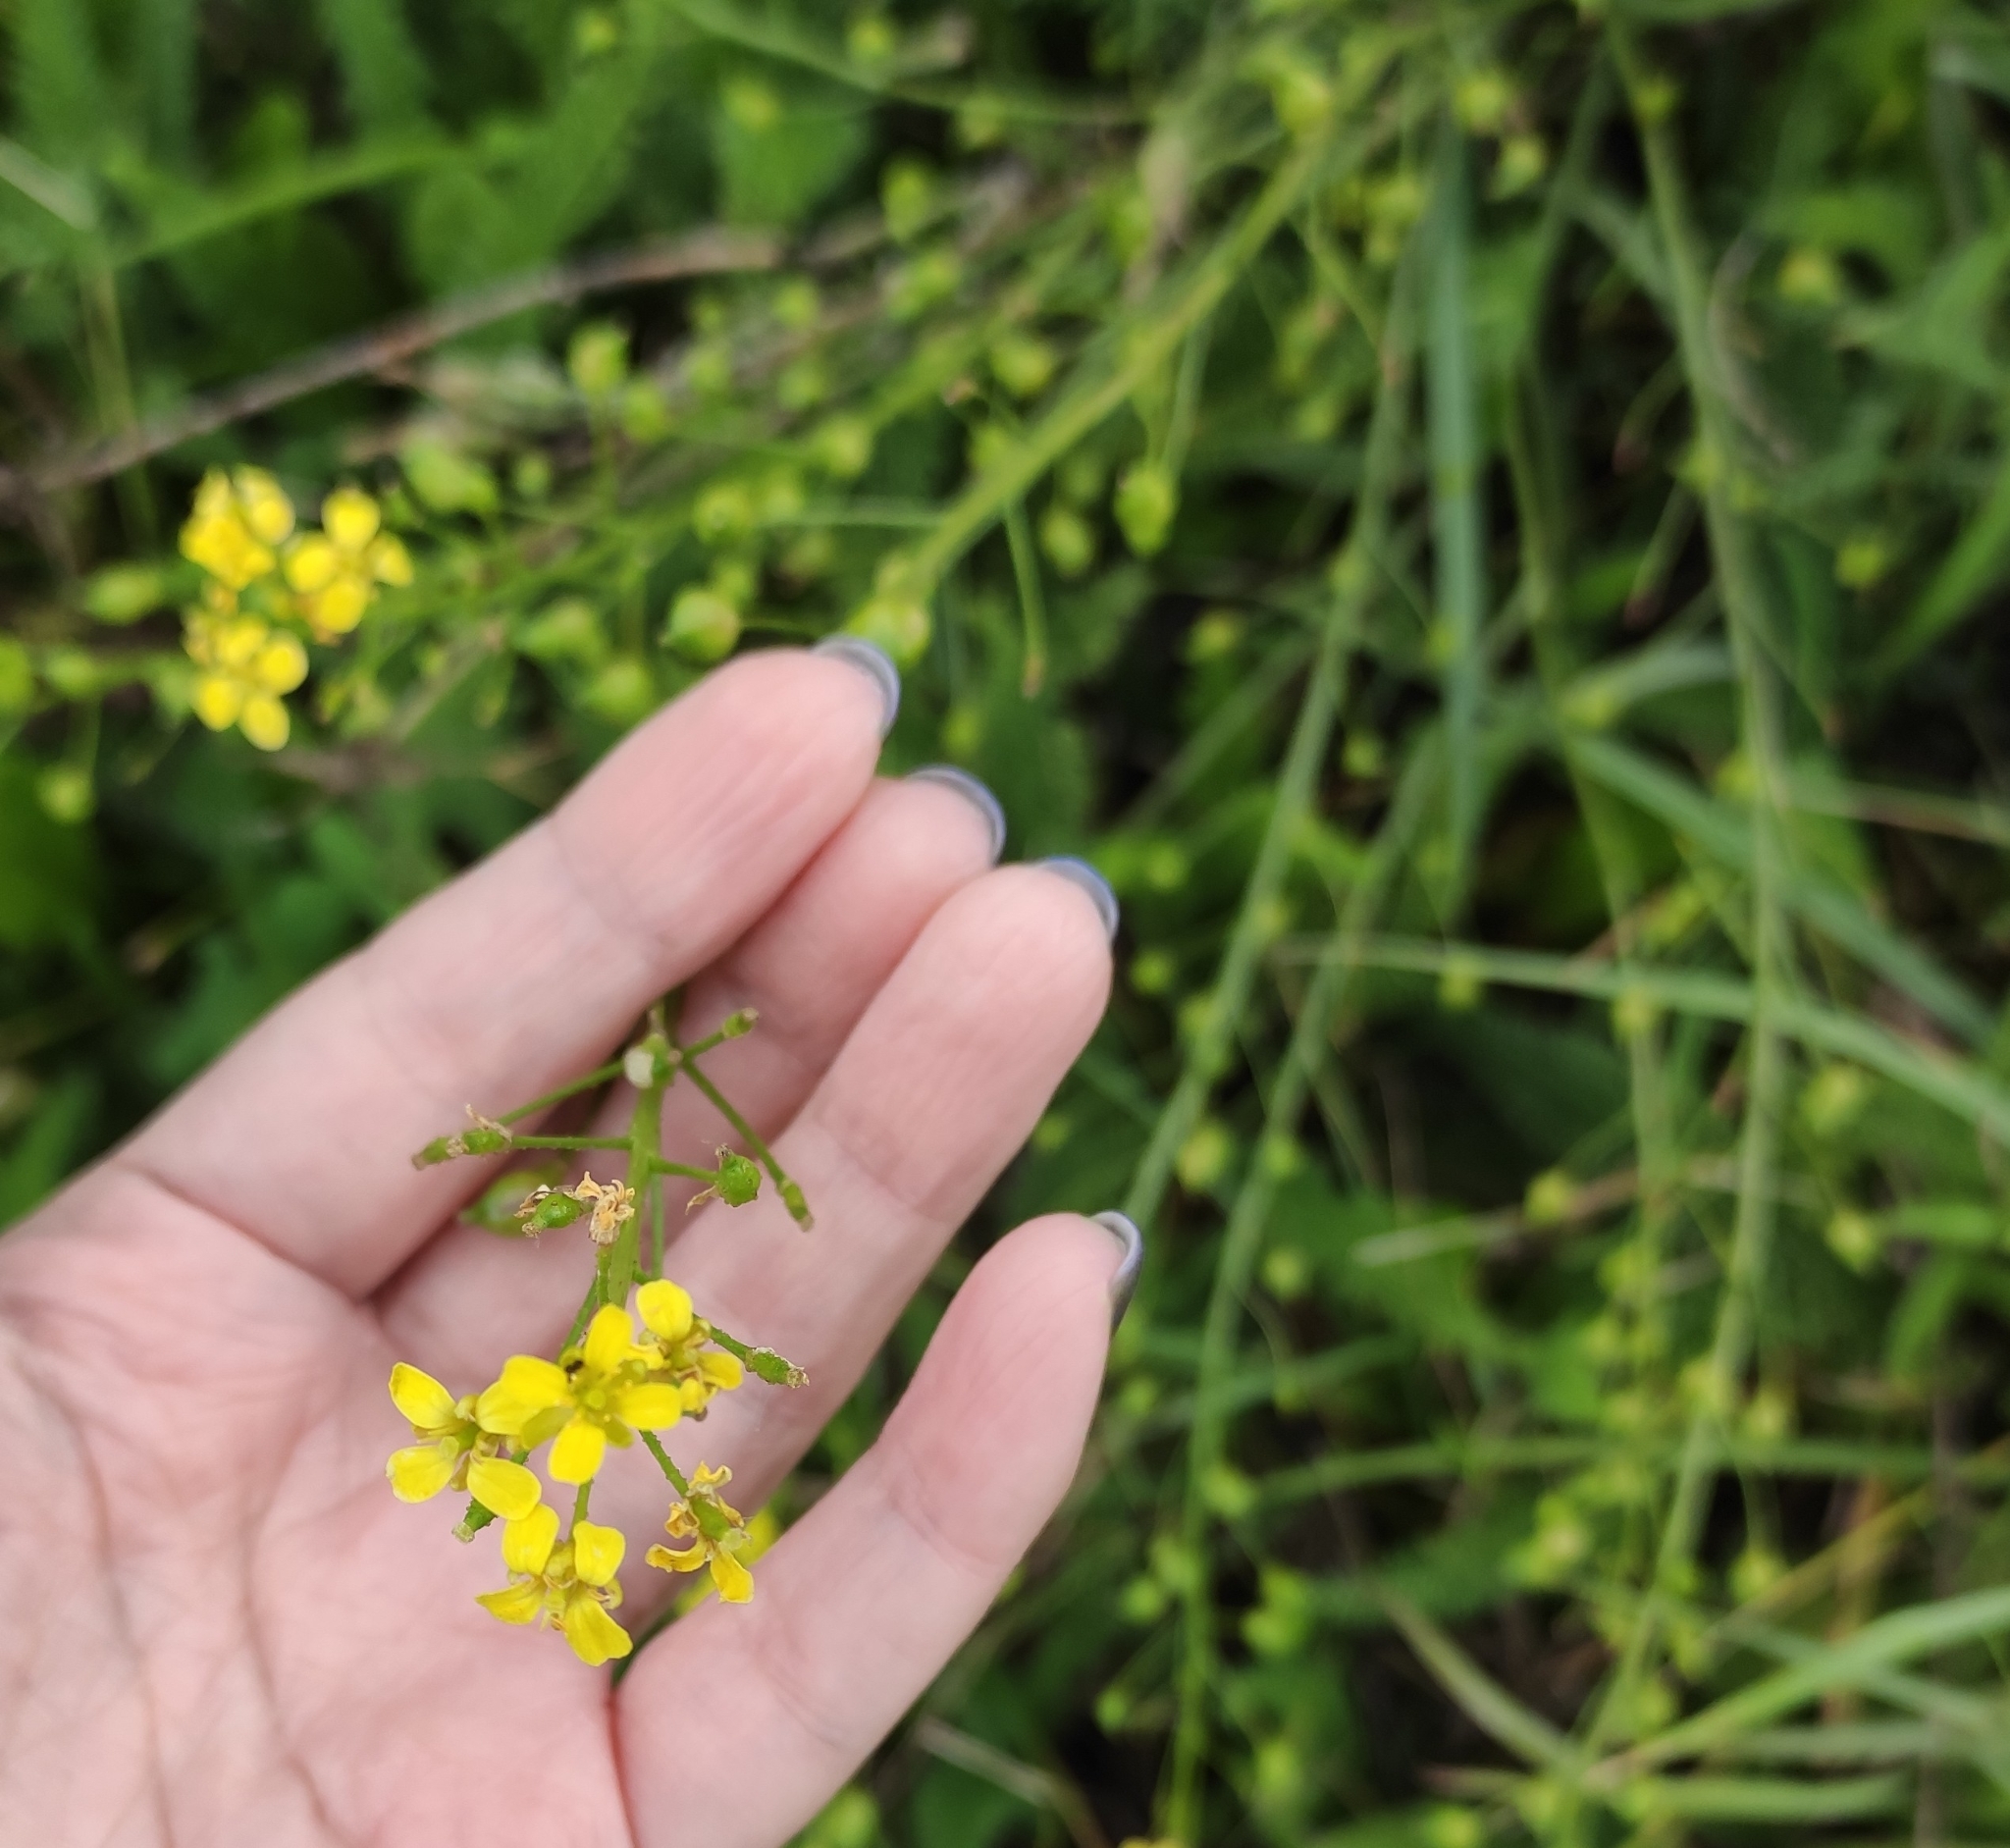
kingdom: Plantae
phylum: Tracheophyta
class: Magnoliopsida
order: Brassicales
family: Brassicaceae
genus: Bunias
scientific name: Bunias orientalis
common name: Warty-cabbage
